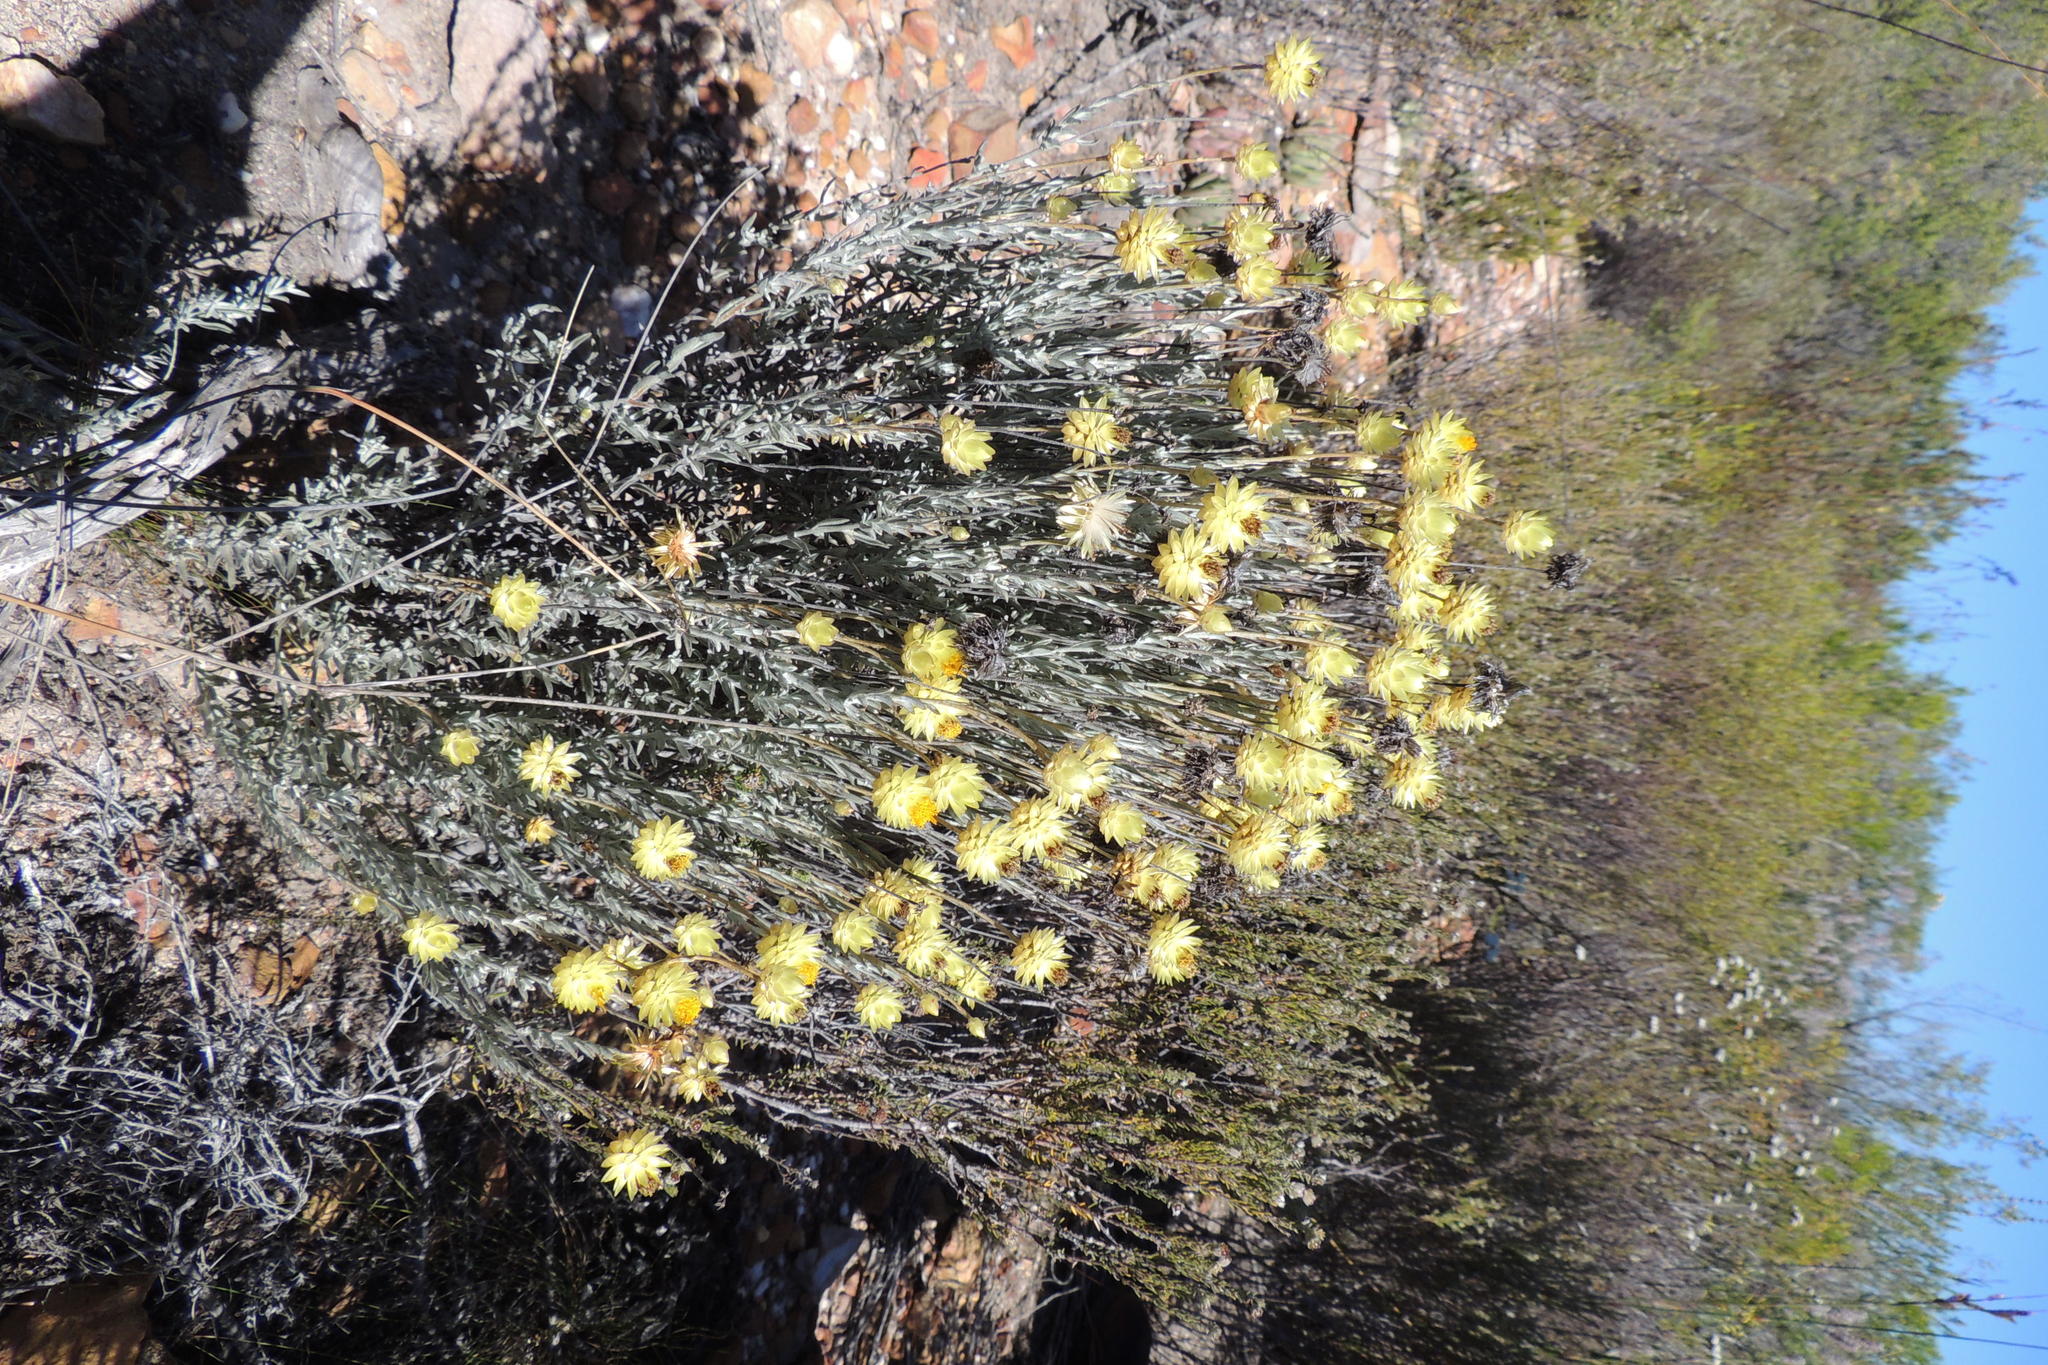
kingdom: Plantae
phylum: Tracheophyta
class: Magnoliopsida
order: Asterales
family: Asteraceae
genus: Syncarpha
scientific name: Syncarpha staehelina
